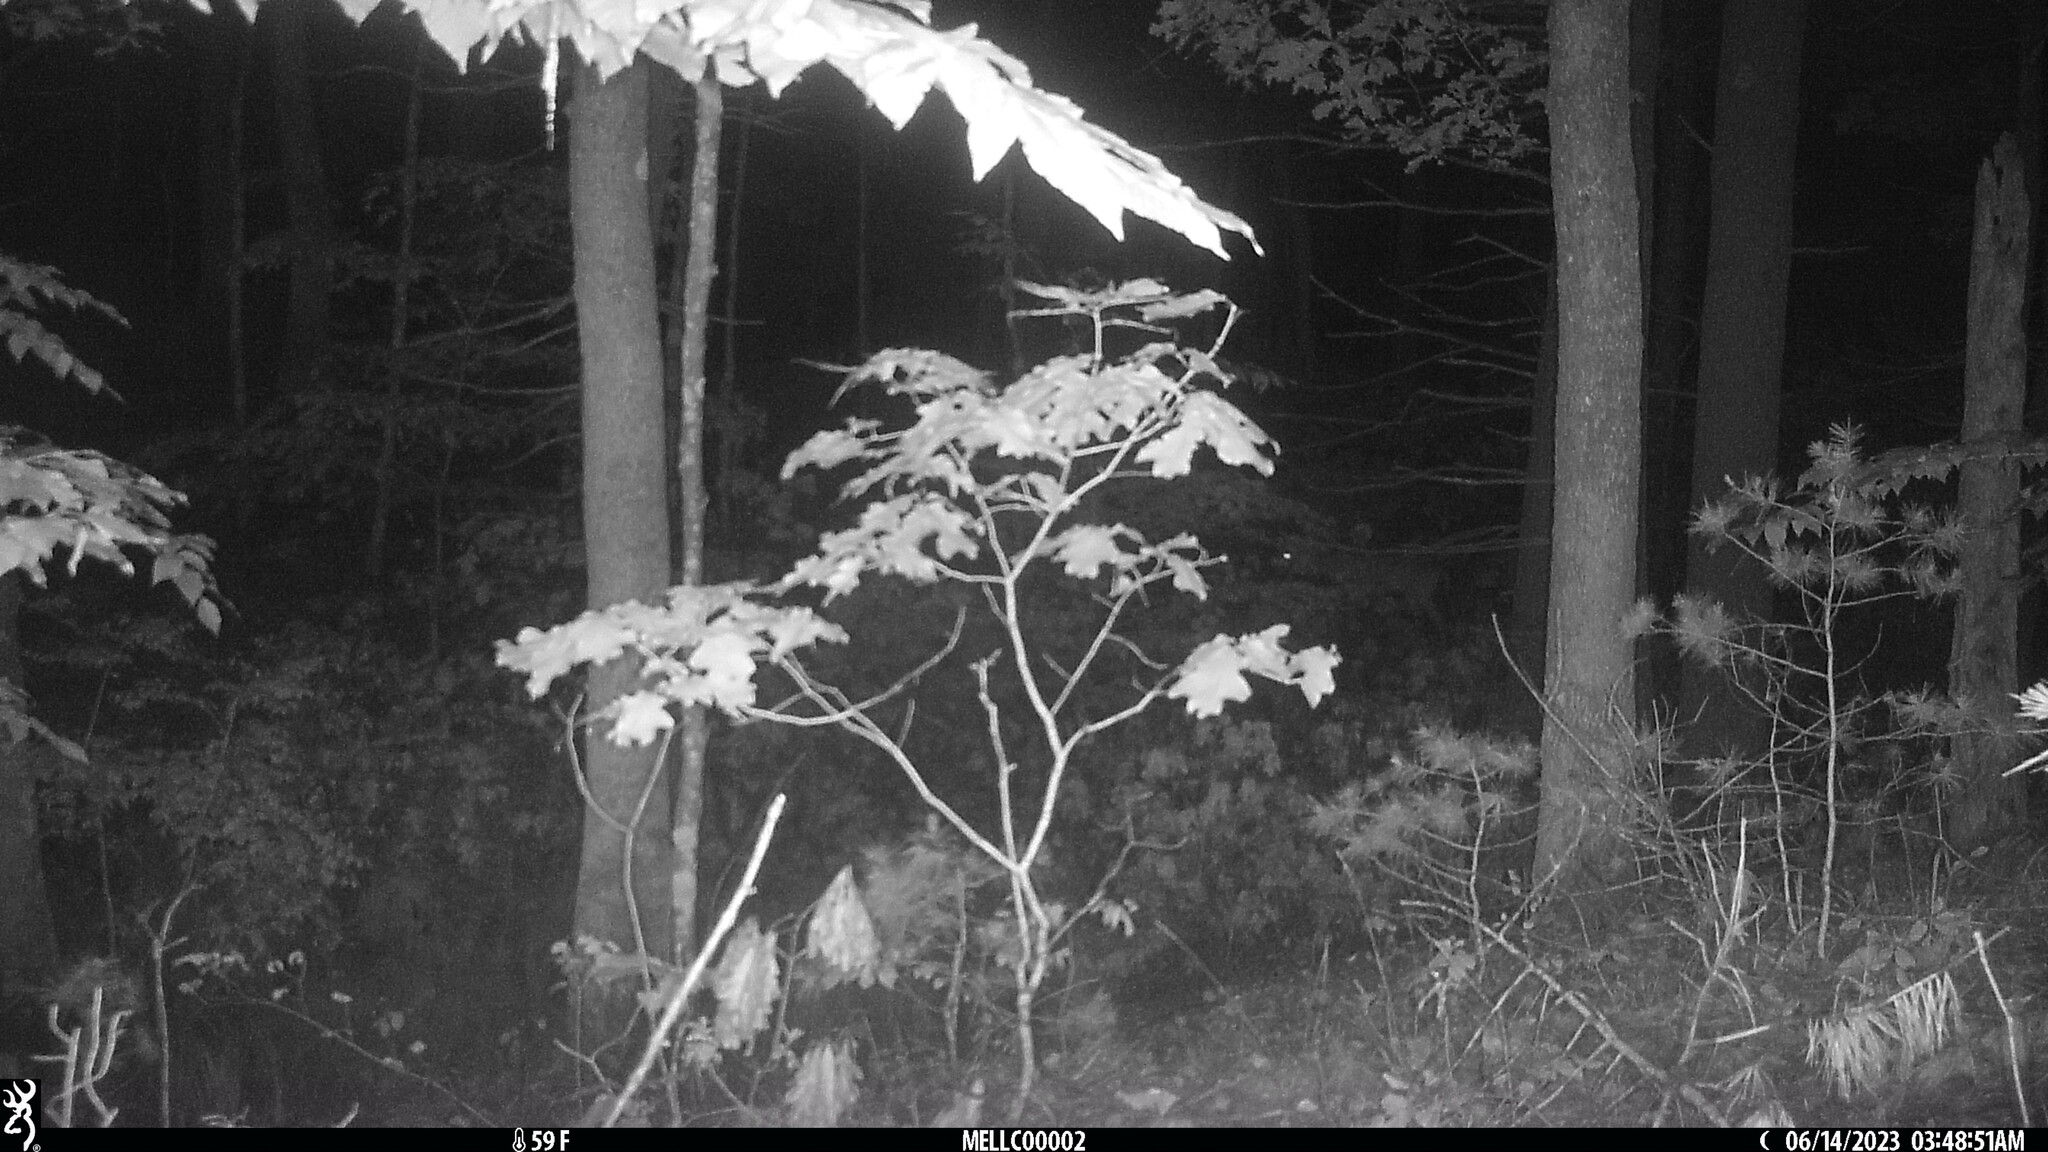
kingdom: Animalia
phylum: Chordata
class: Mammalia
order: Artiodactyla
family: Cervidae
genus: Odocoileus
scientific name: Odocoileus virginianus
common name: White-tailed deer
